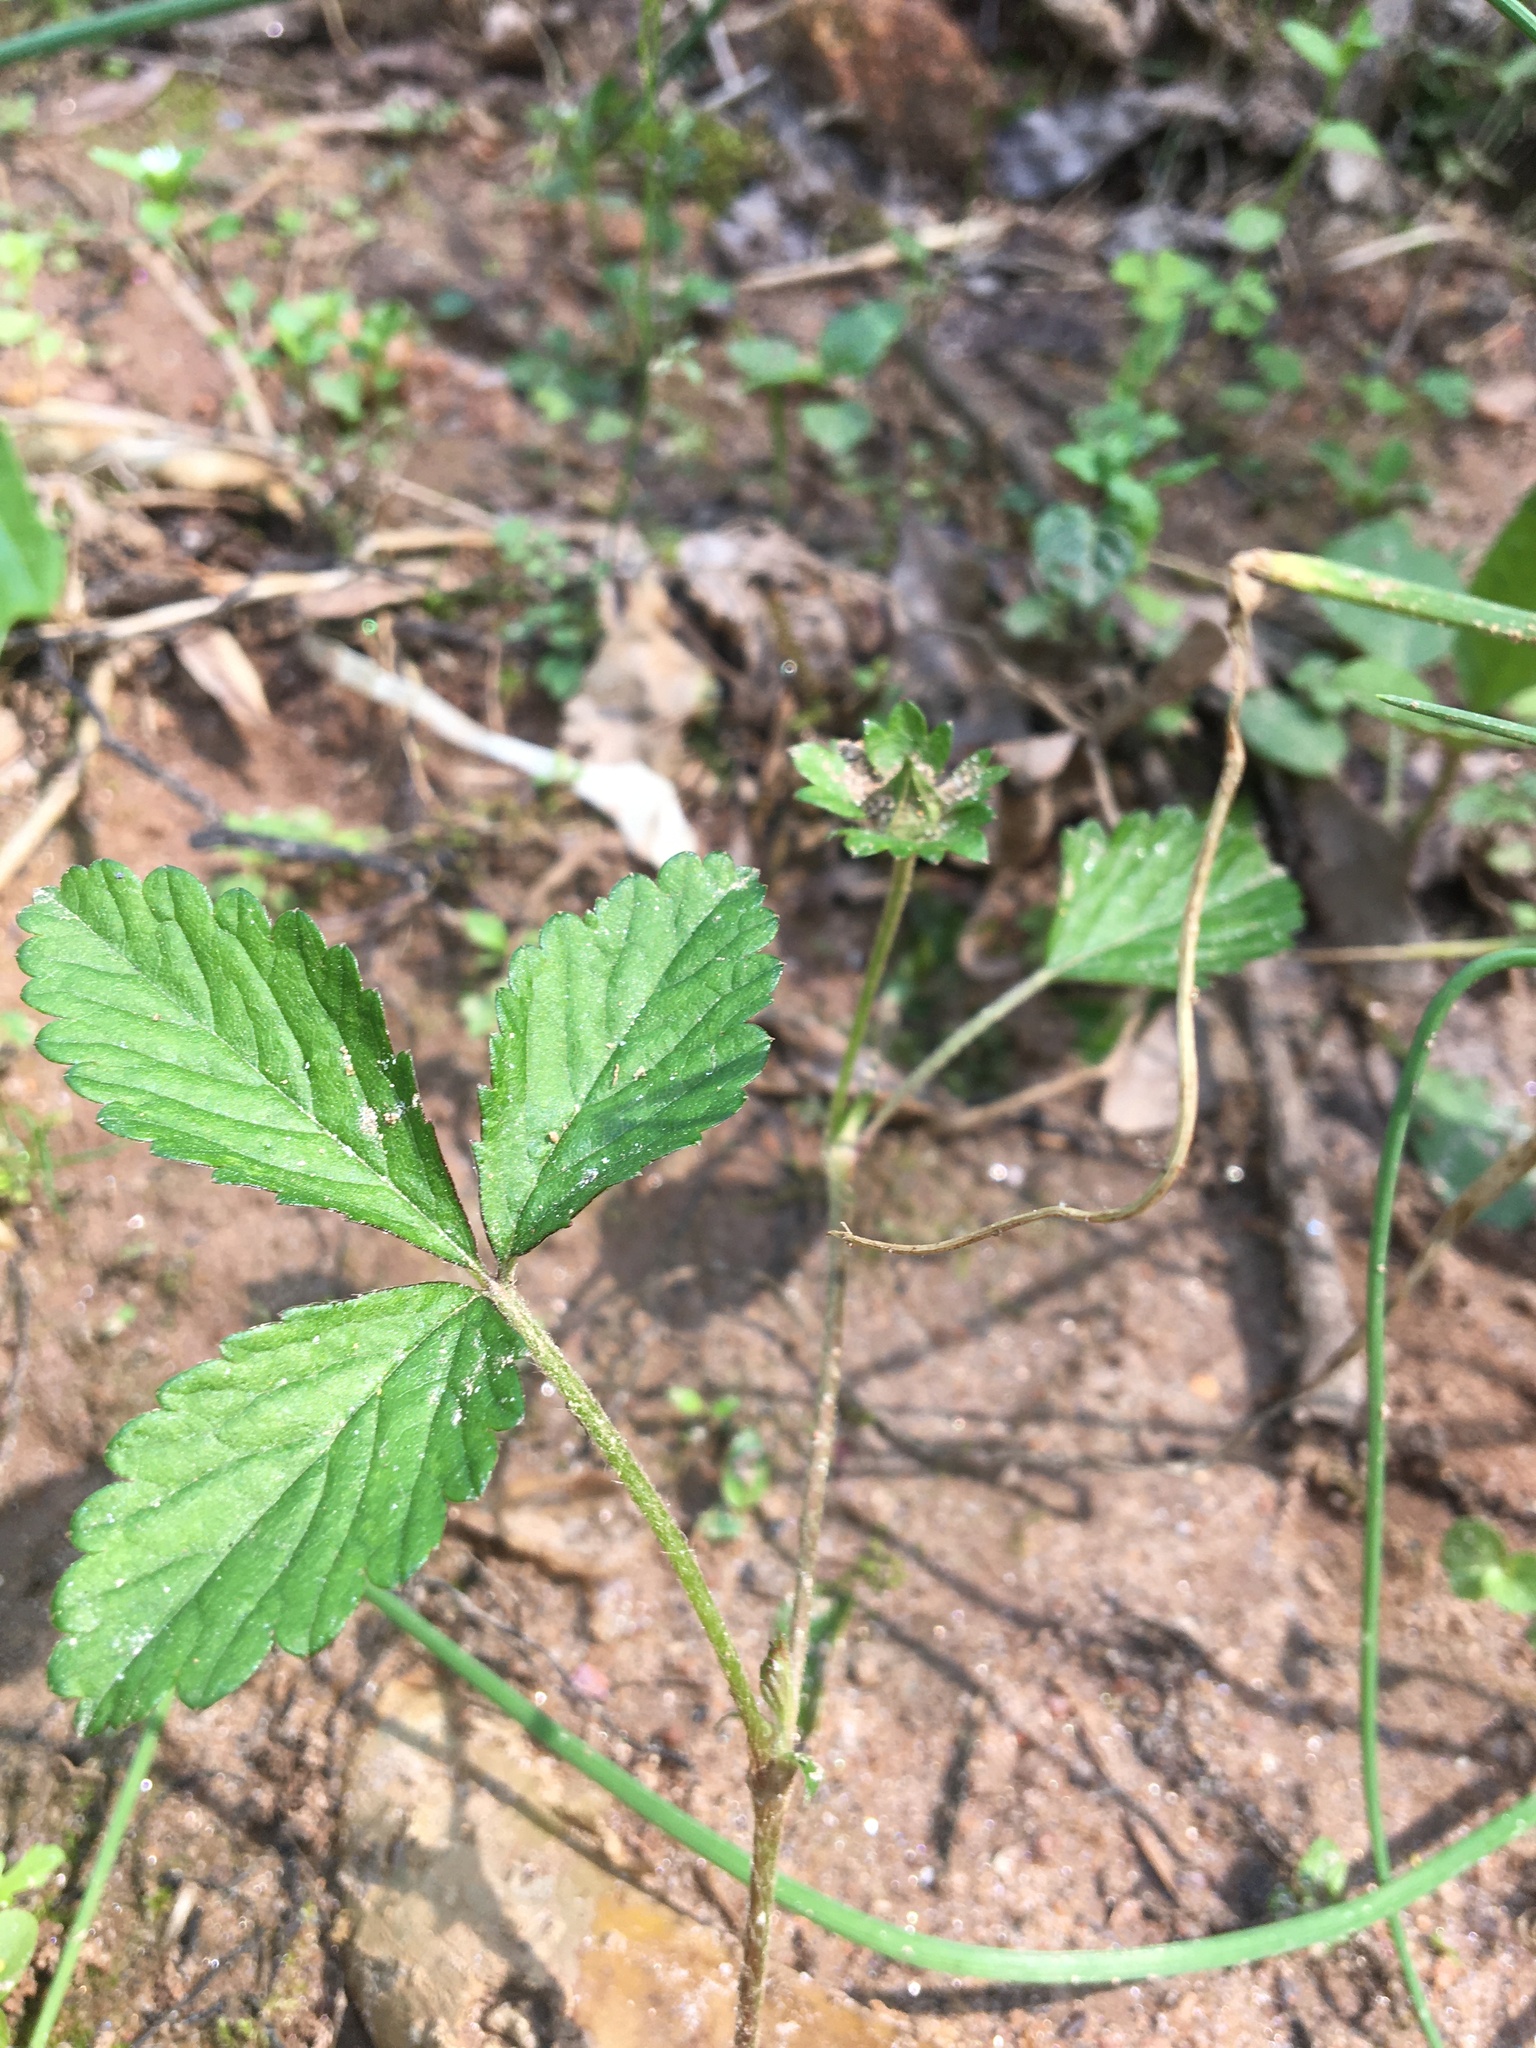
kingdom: Plantae
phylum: Tracheophyta
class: Magnoliopsida
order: Rosales
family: Rosaceae
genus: Potentilla
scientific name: Potentilla indica
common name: Yellow-flowered strawberry
